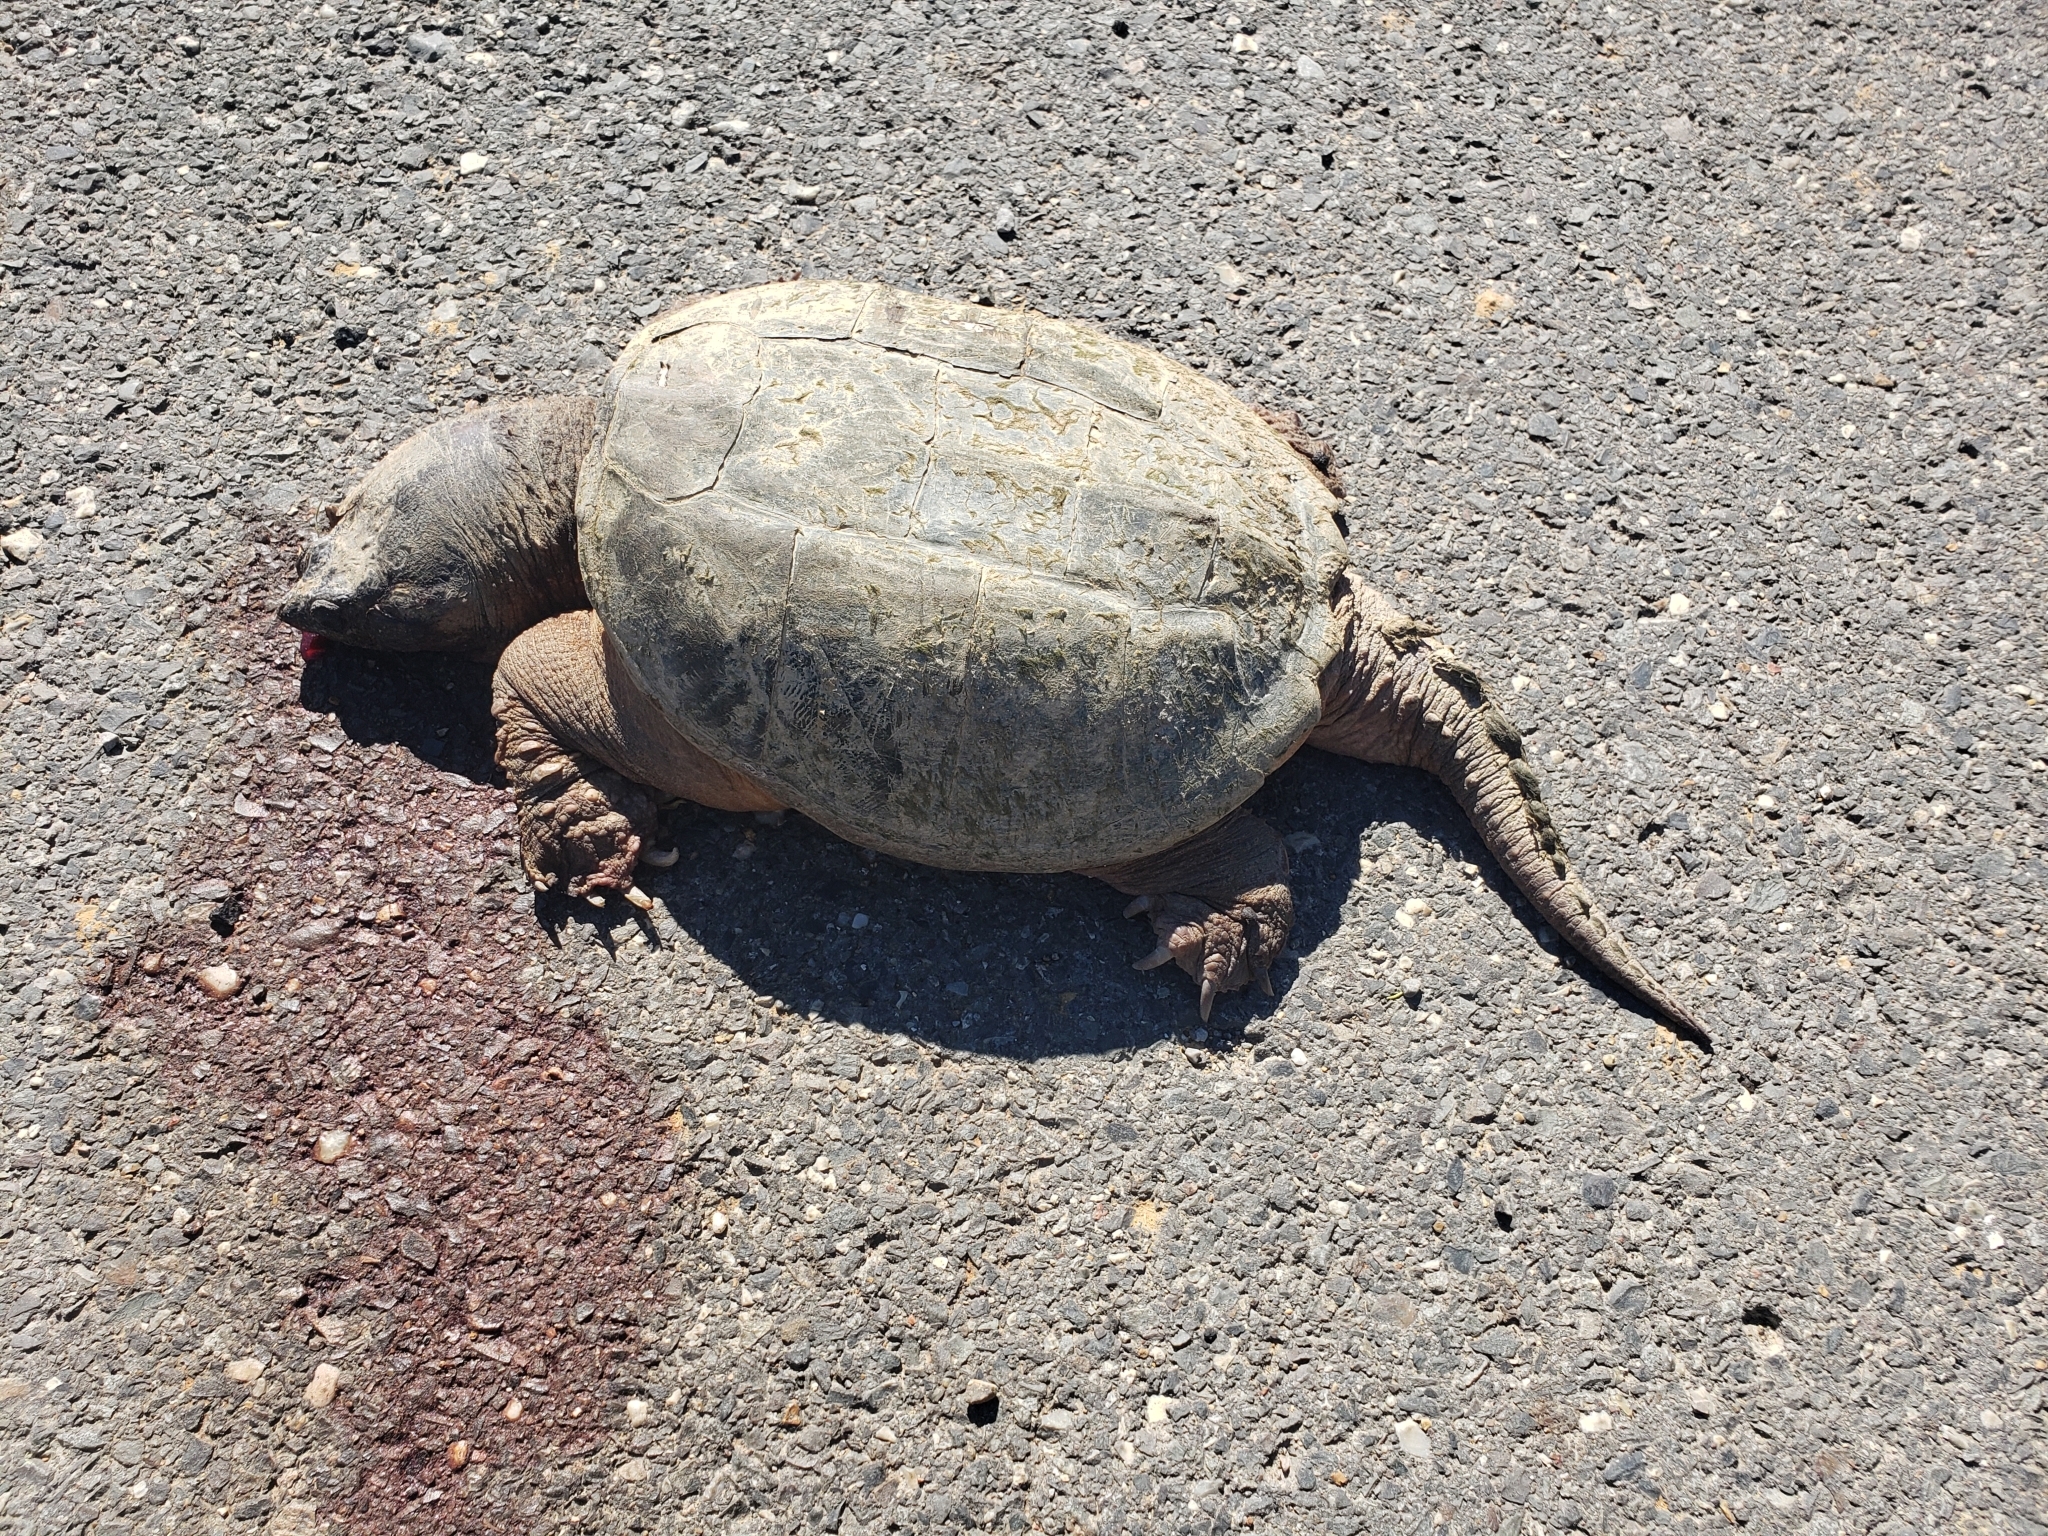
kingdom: Animalia
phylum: Chordata
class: Testudines
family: Chelydridae
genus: Chelydra
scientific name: Chelydra serpentina
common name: Common snapping turtle
